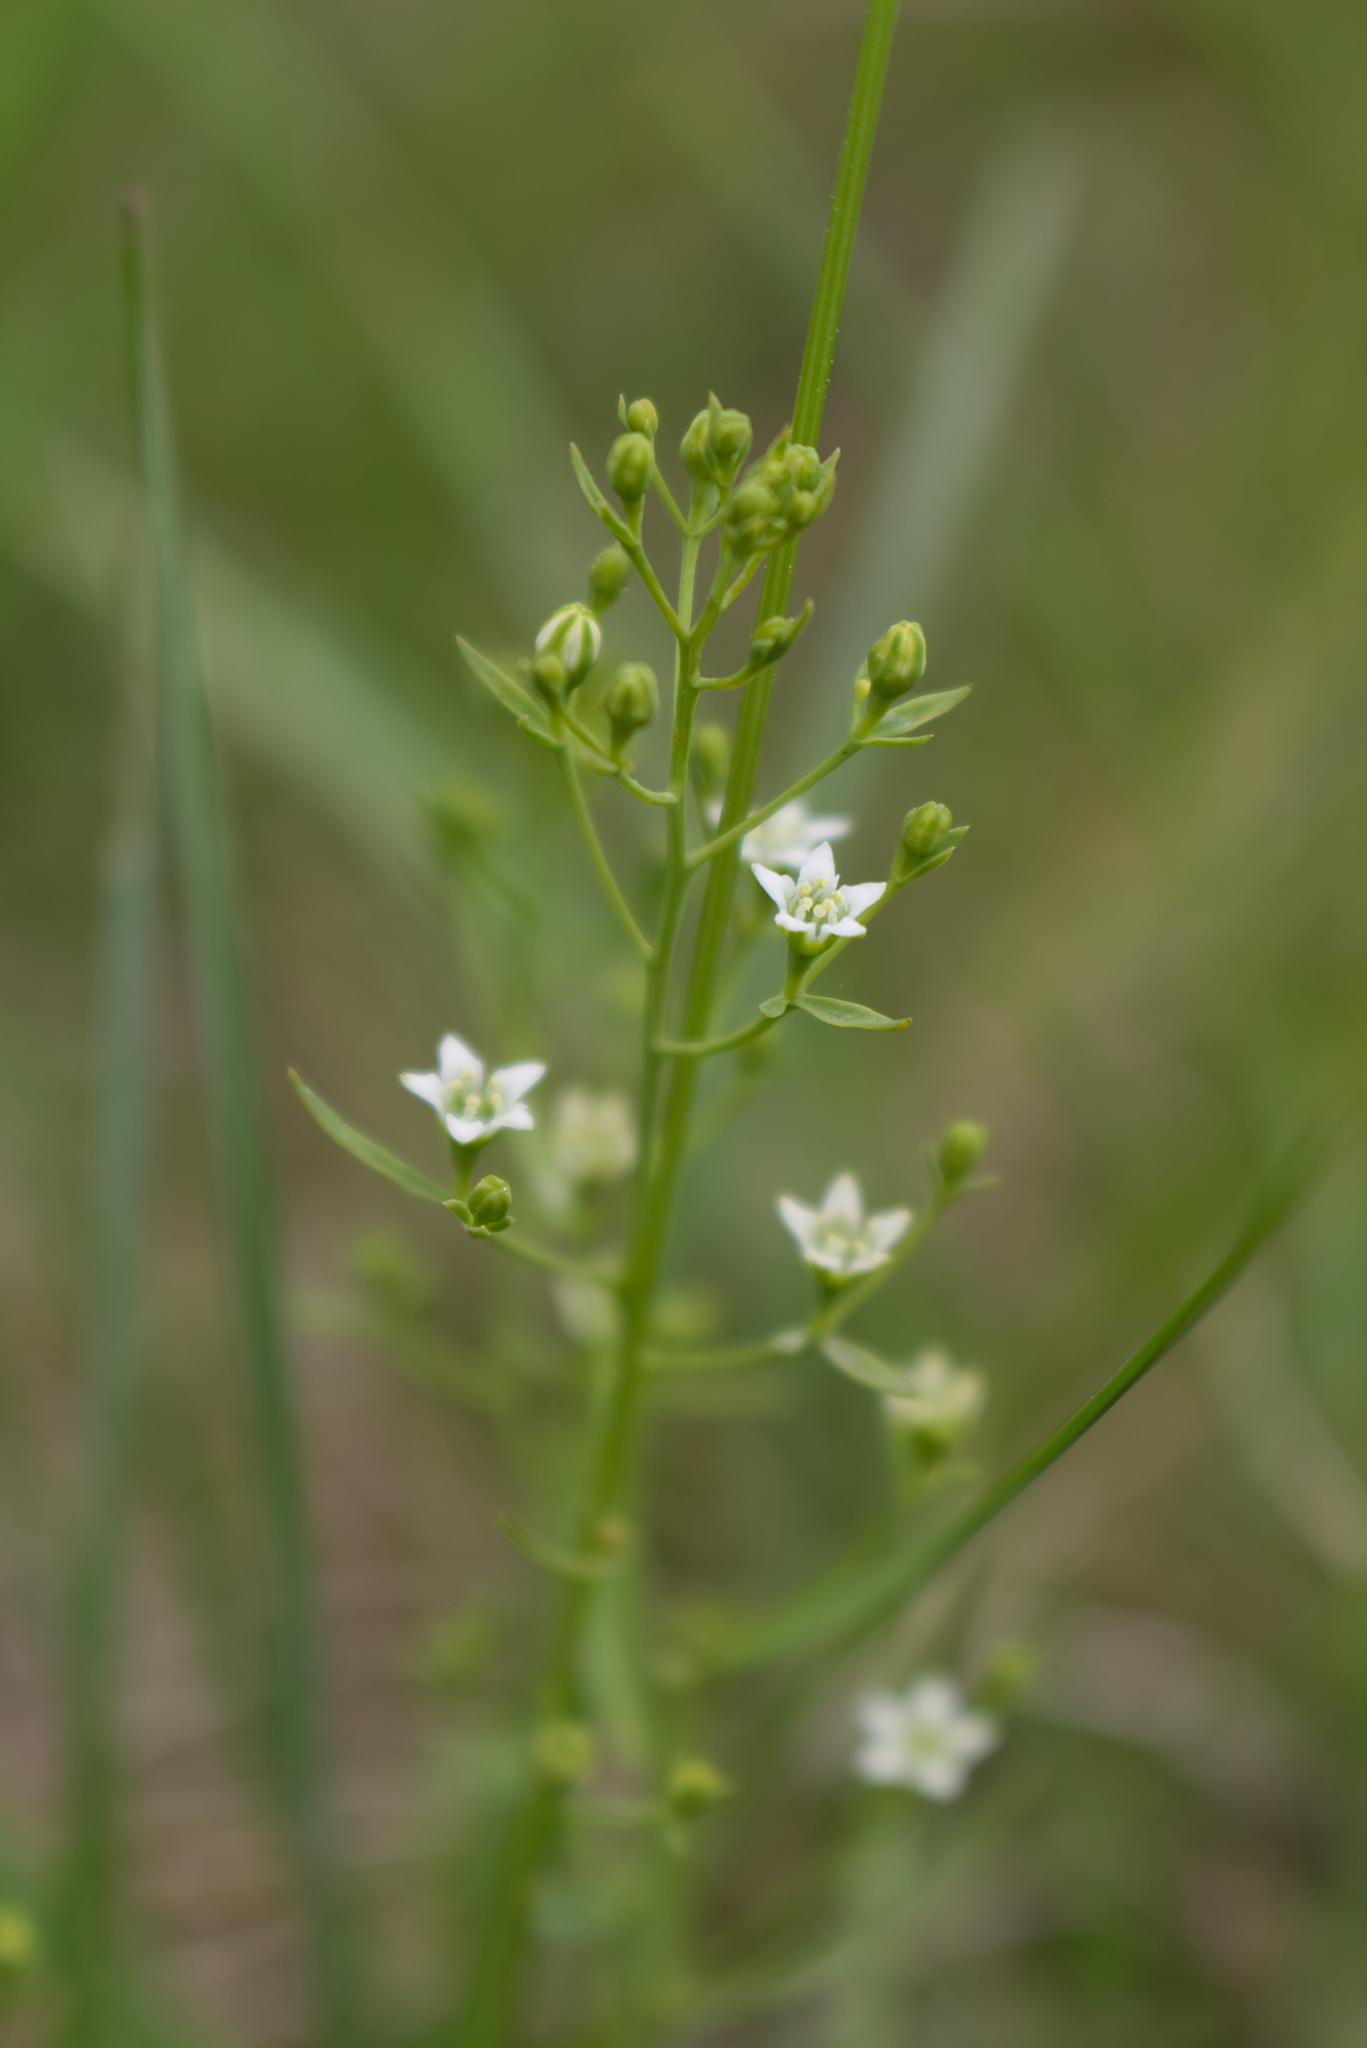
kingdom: Plantae
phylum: Tracheophyta
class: Magnoliopsida
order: Santalales
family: Thesiaceae
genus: Thesium
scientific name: Thesium pyrenaicum
